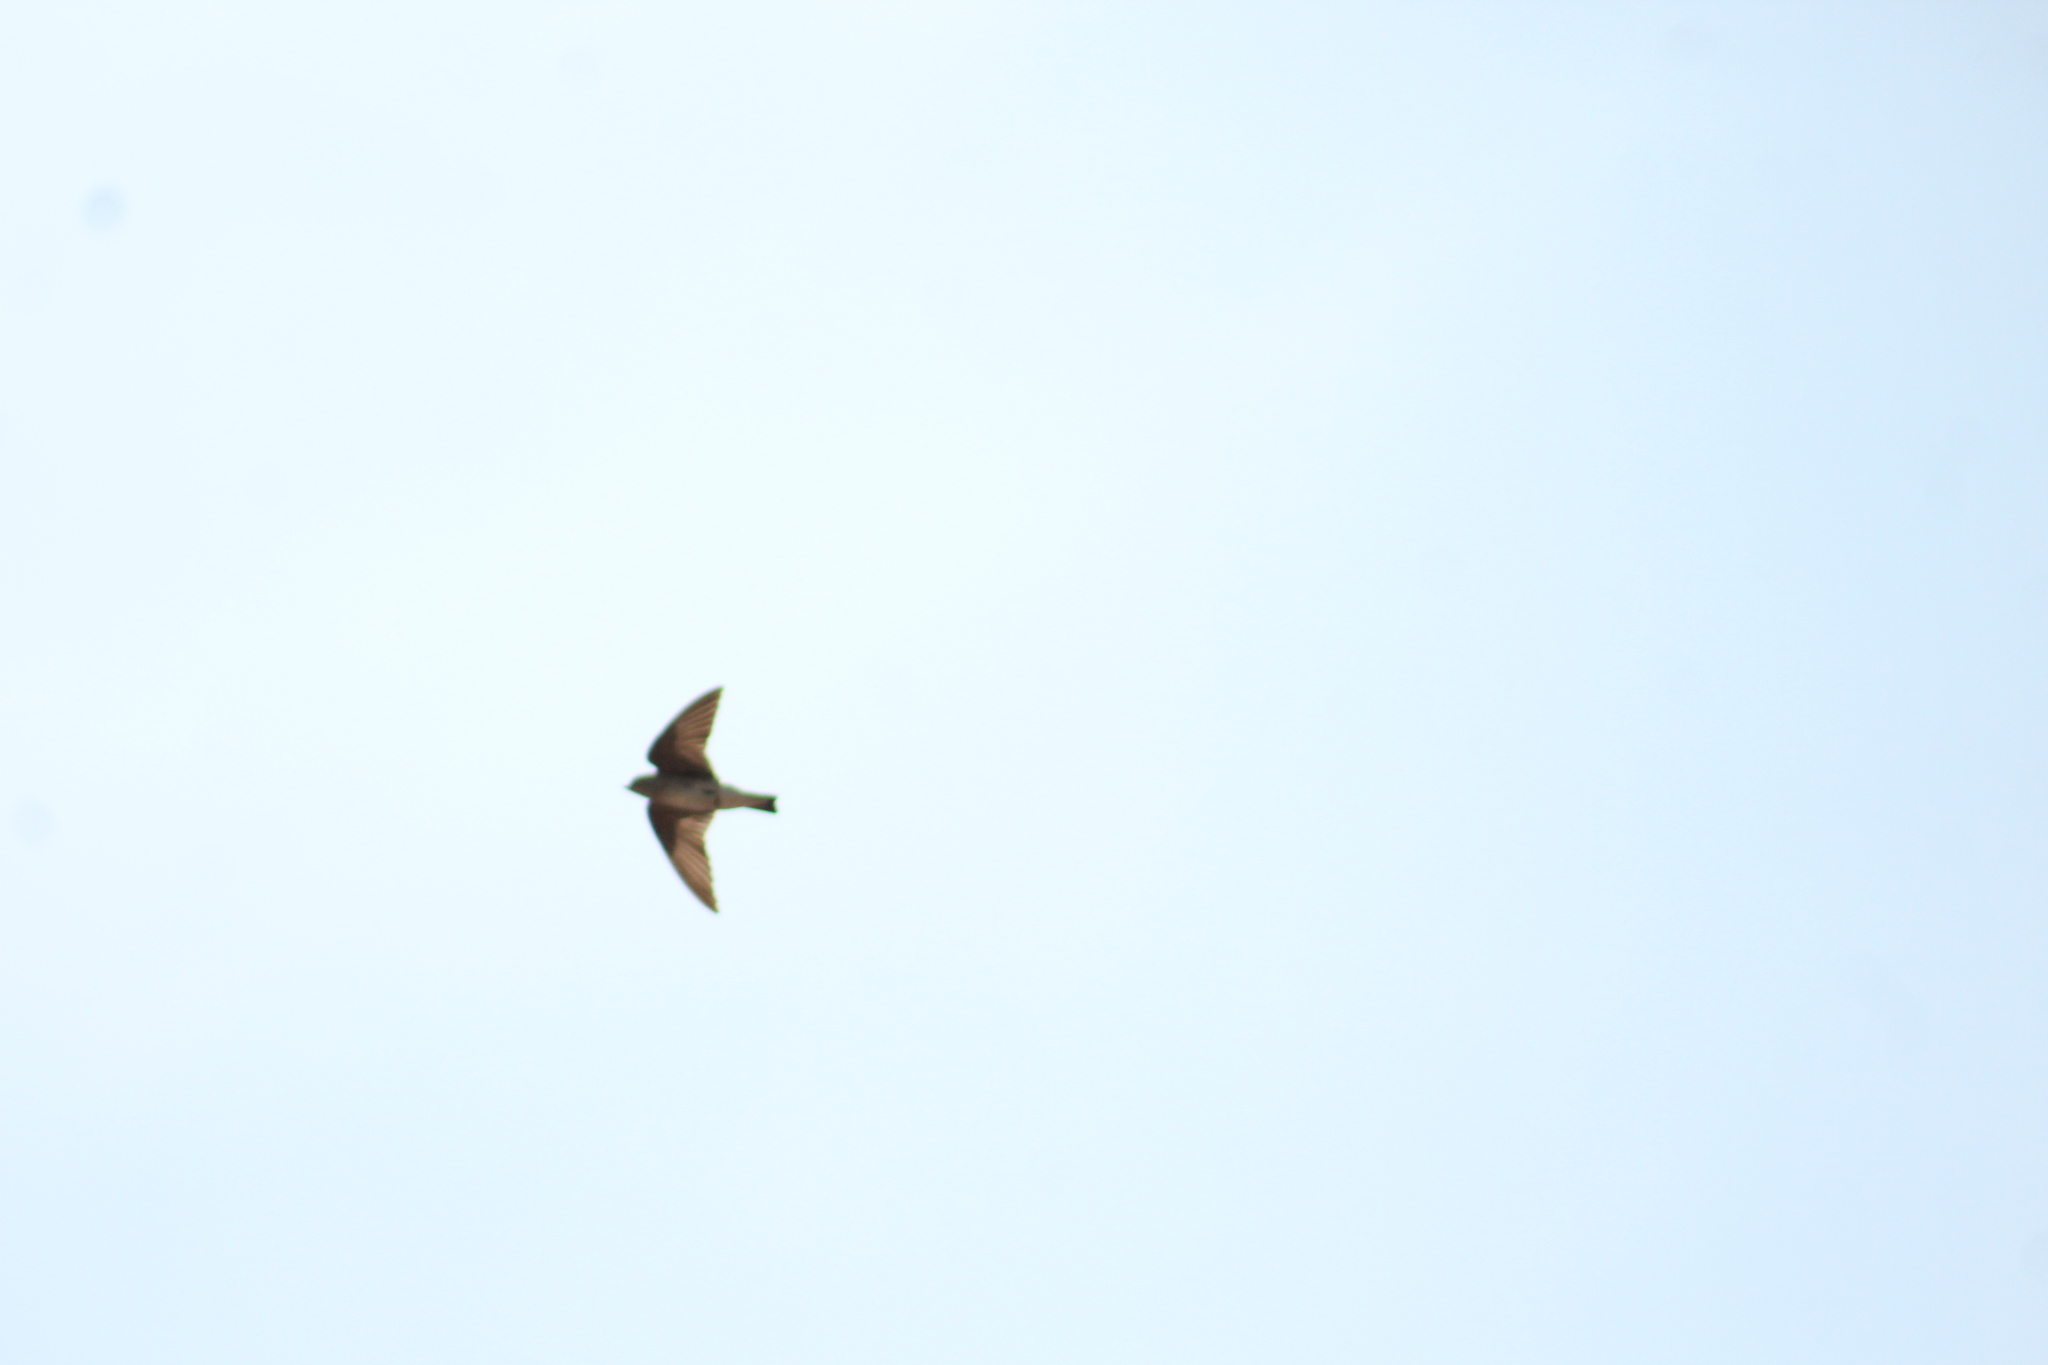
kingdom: Animalia
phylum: Chordata
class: Aves
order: Passeriformes
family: Hirundinidae
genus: Stelgidopteryx
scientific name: Stelgidopteryx serripennis
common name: Northern rough-winged swallow
